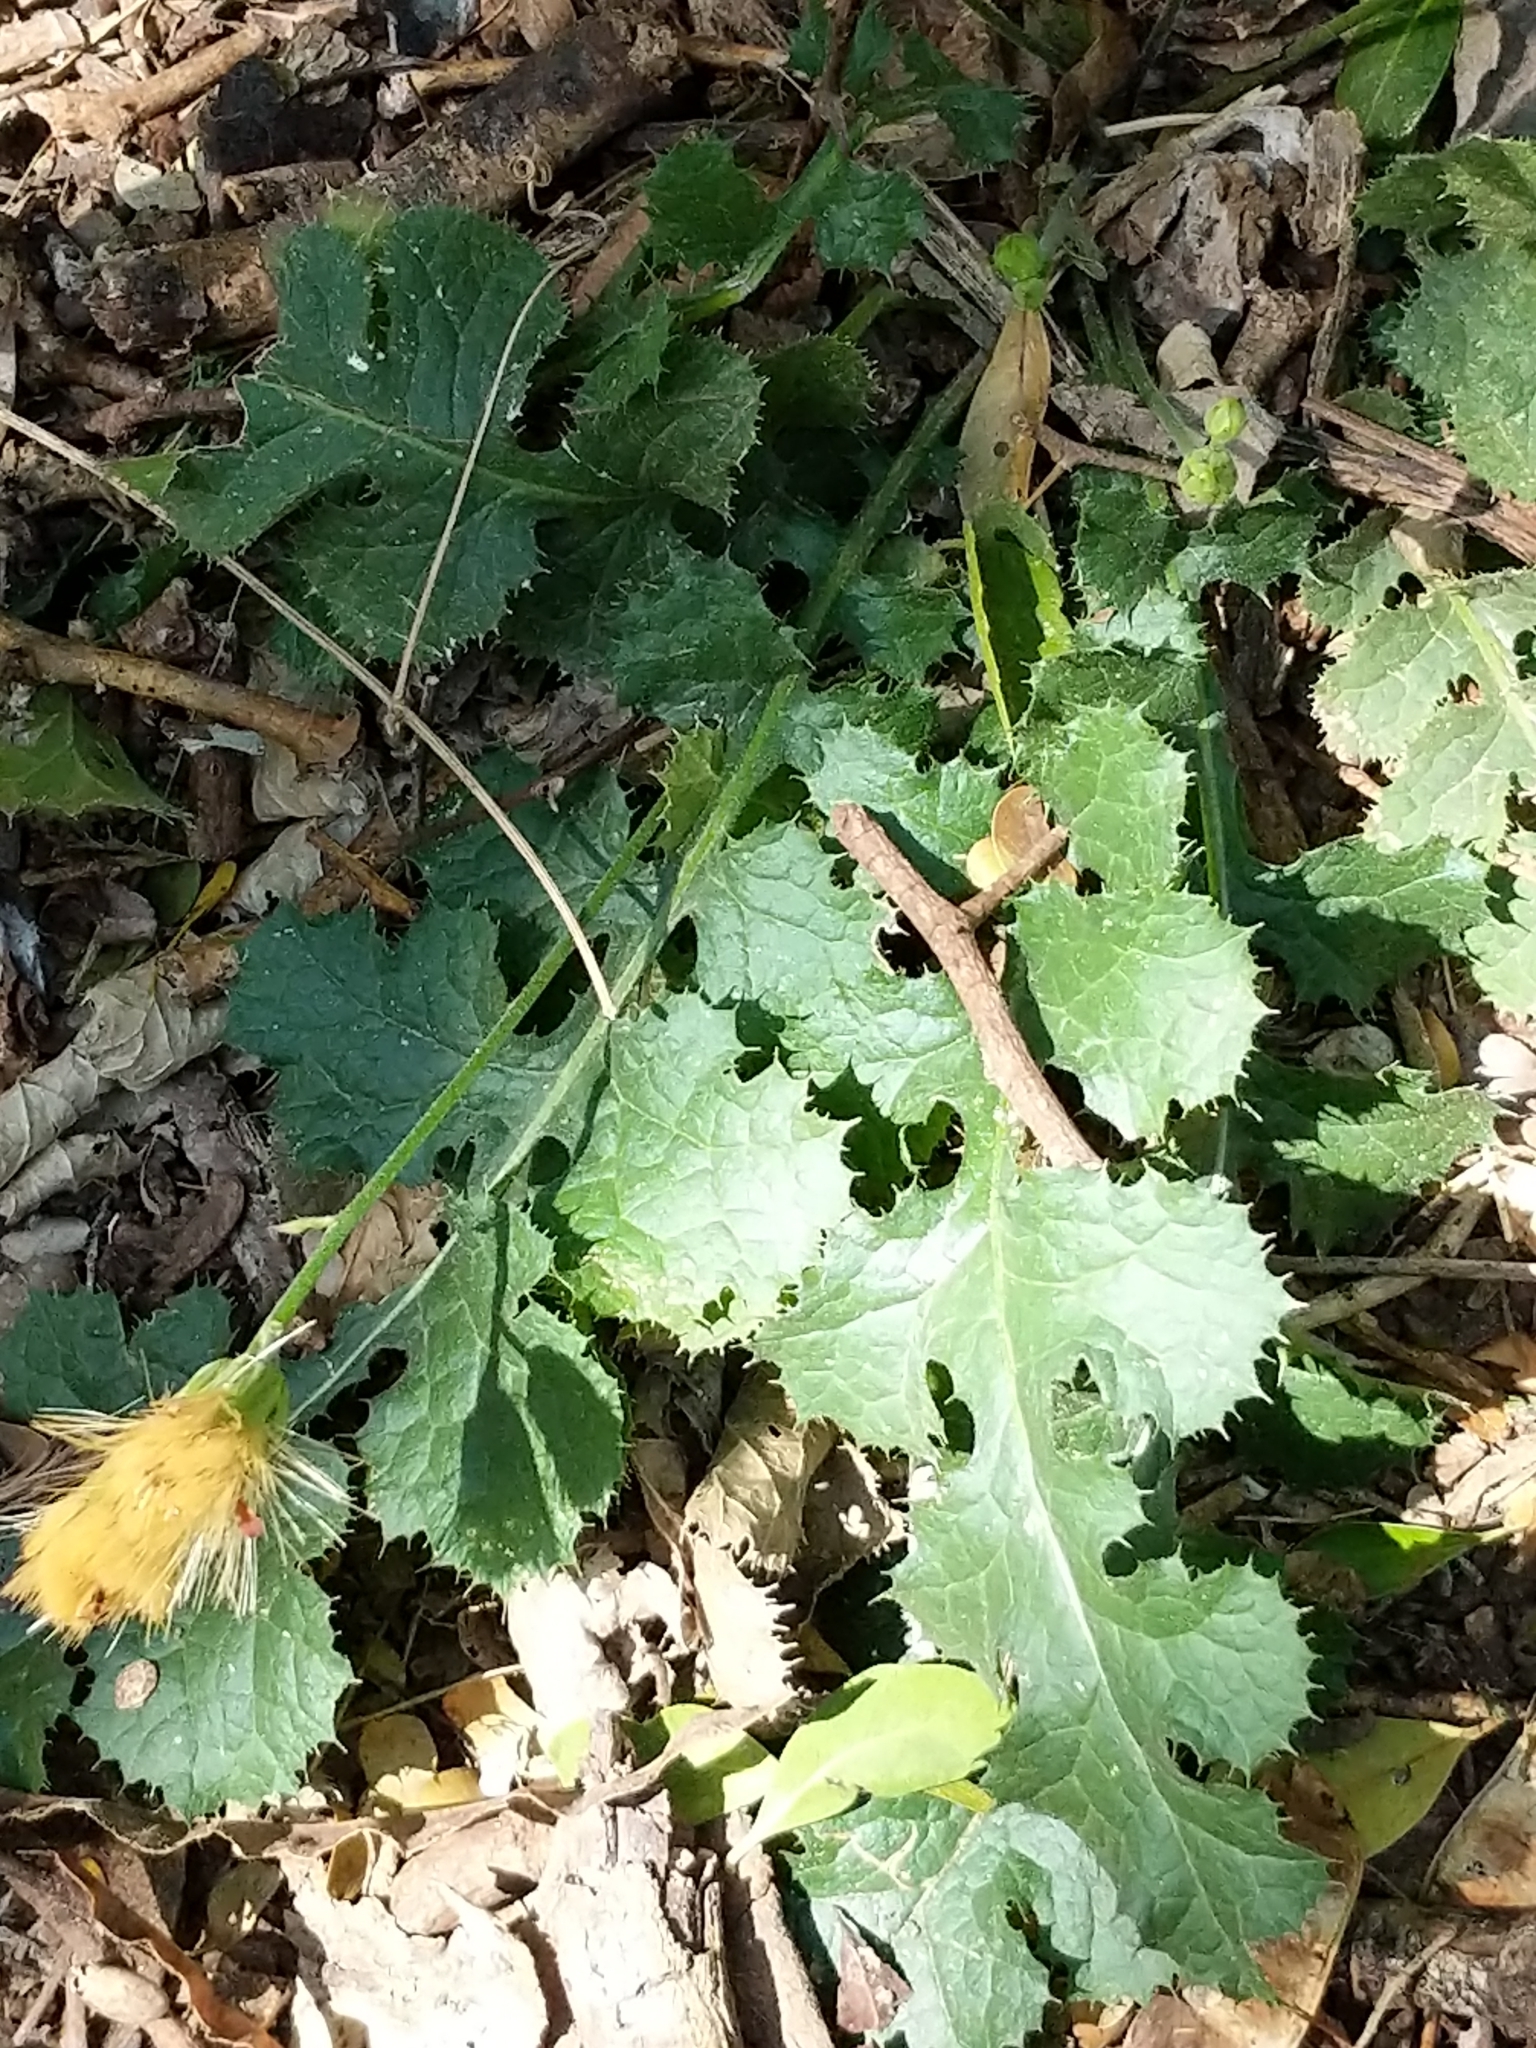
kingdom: Plantae
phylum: Tracheophyta
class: Magnoliopsida
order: Asterales
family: Asteraceae
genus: Acourtia
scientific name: Acourtia runcinata
